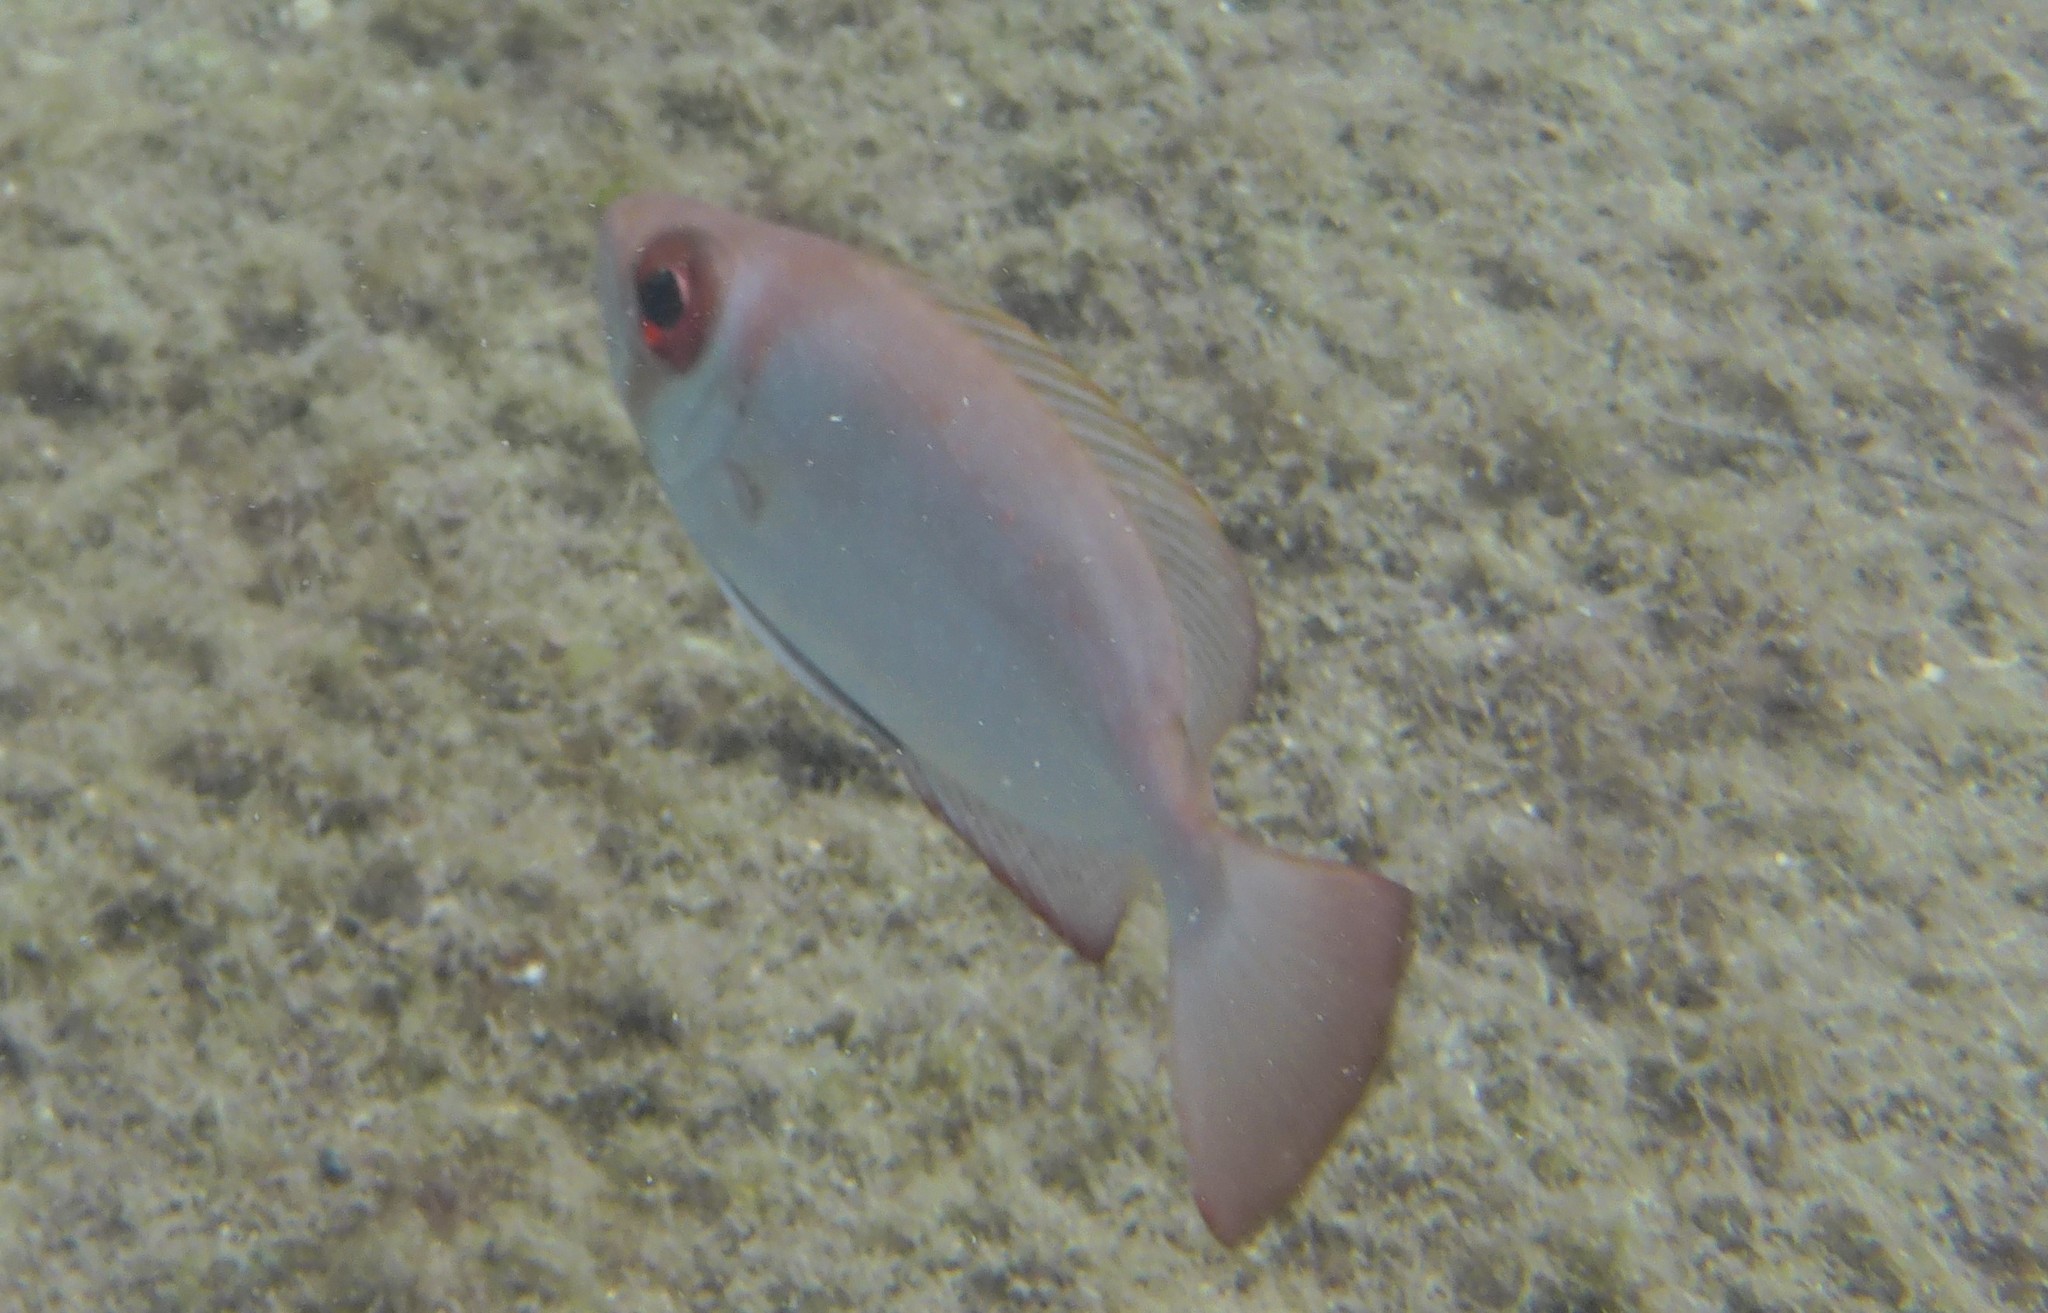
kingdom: Animalia
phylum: Chordata
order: Perciformes
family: Priacanthidae
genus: Priacanthus
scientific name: Priacanthus arenatus
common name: Atlantic bigeye
